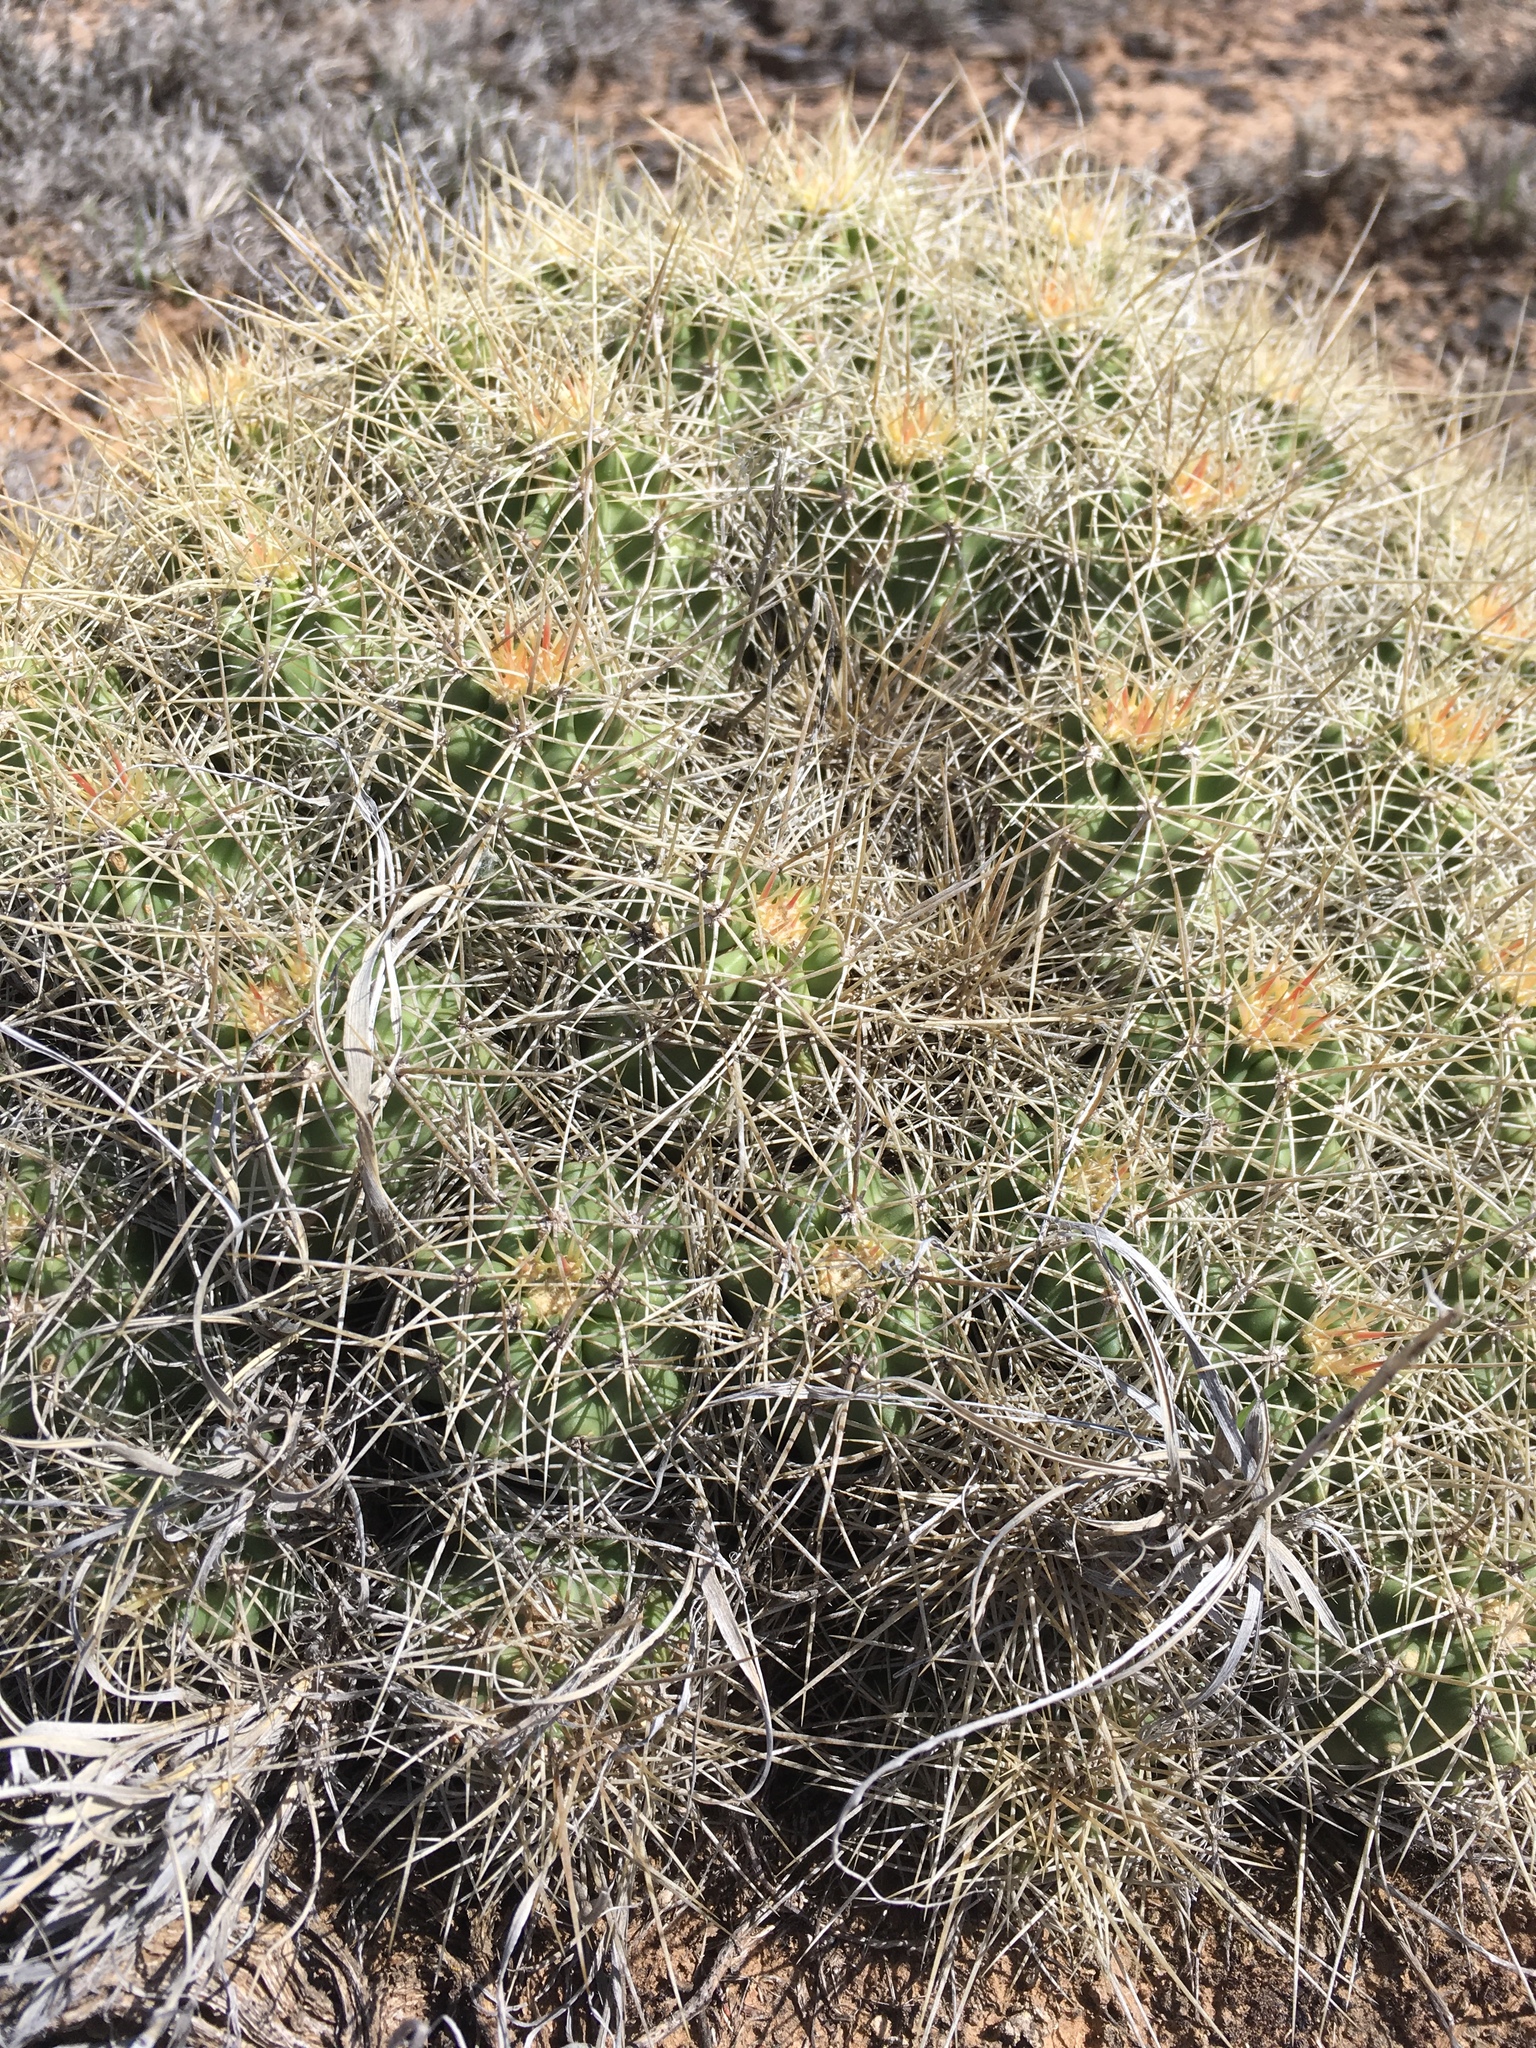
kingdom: Plantae
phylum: Tracheophyta
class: Magnoliopsida
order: Caryophyllales
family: Cactaceae
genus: Echinocereus
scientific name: Echinocereus triglochidiatus
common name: Claretcup hedgehog
